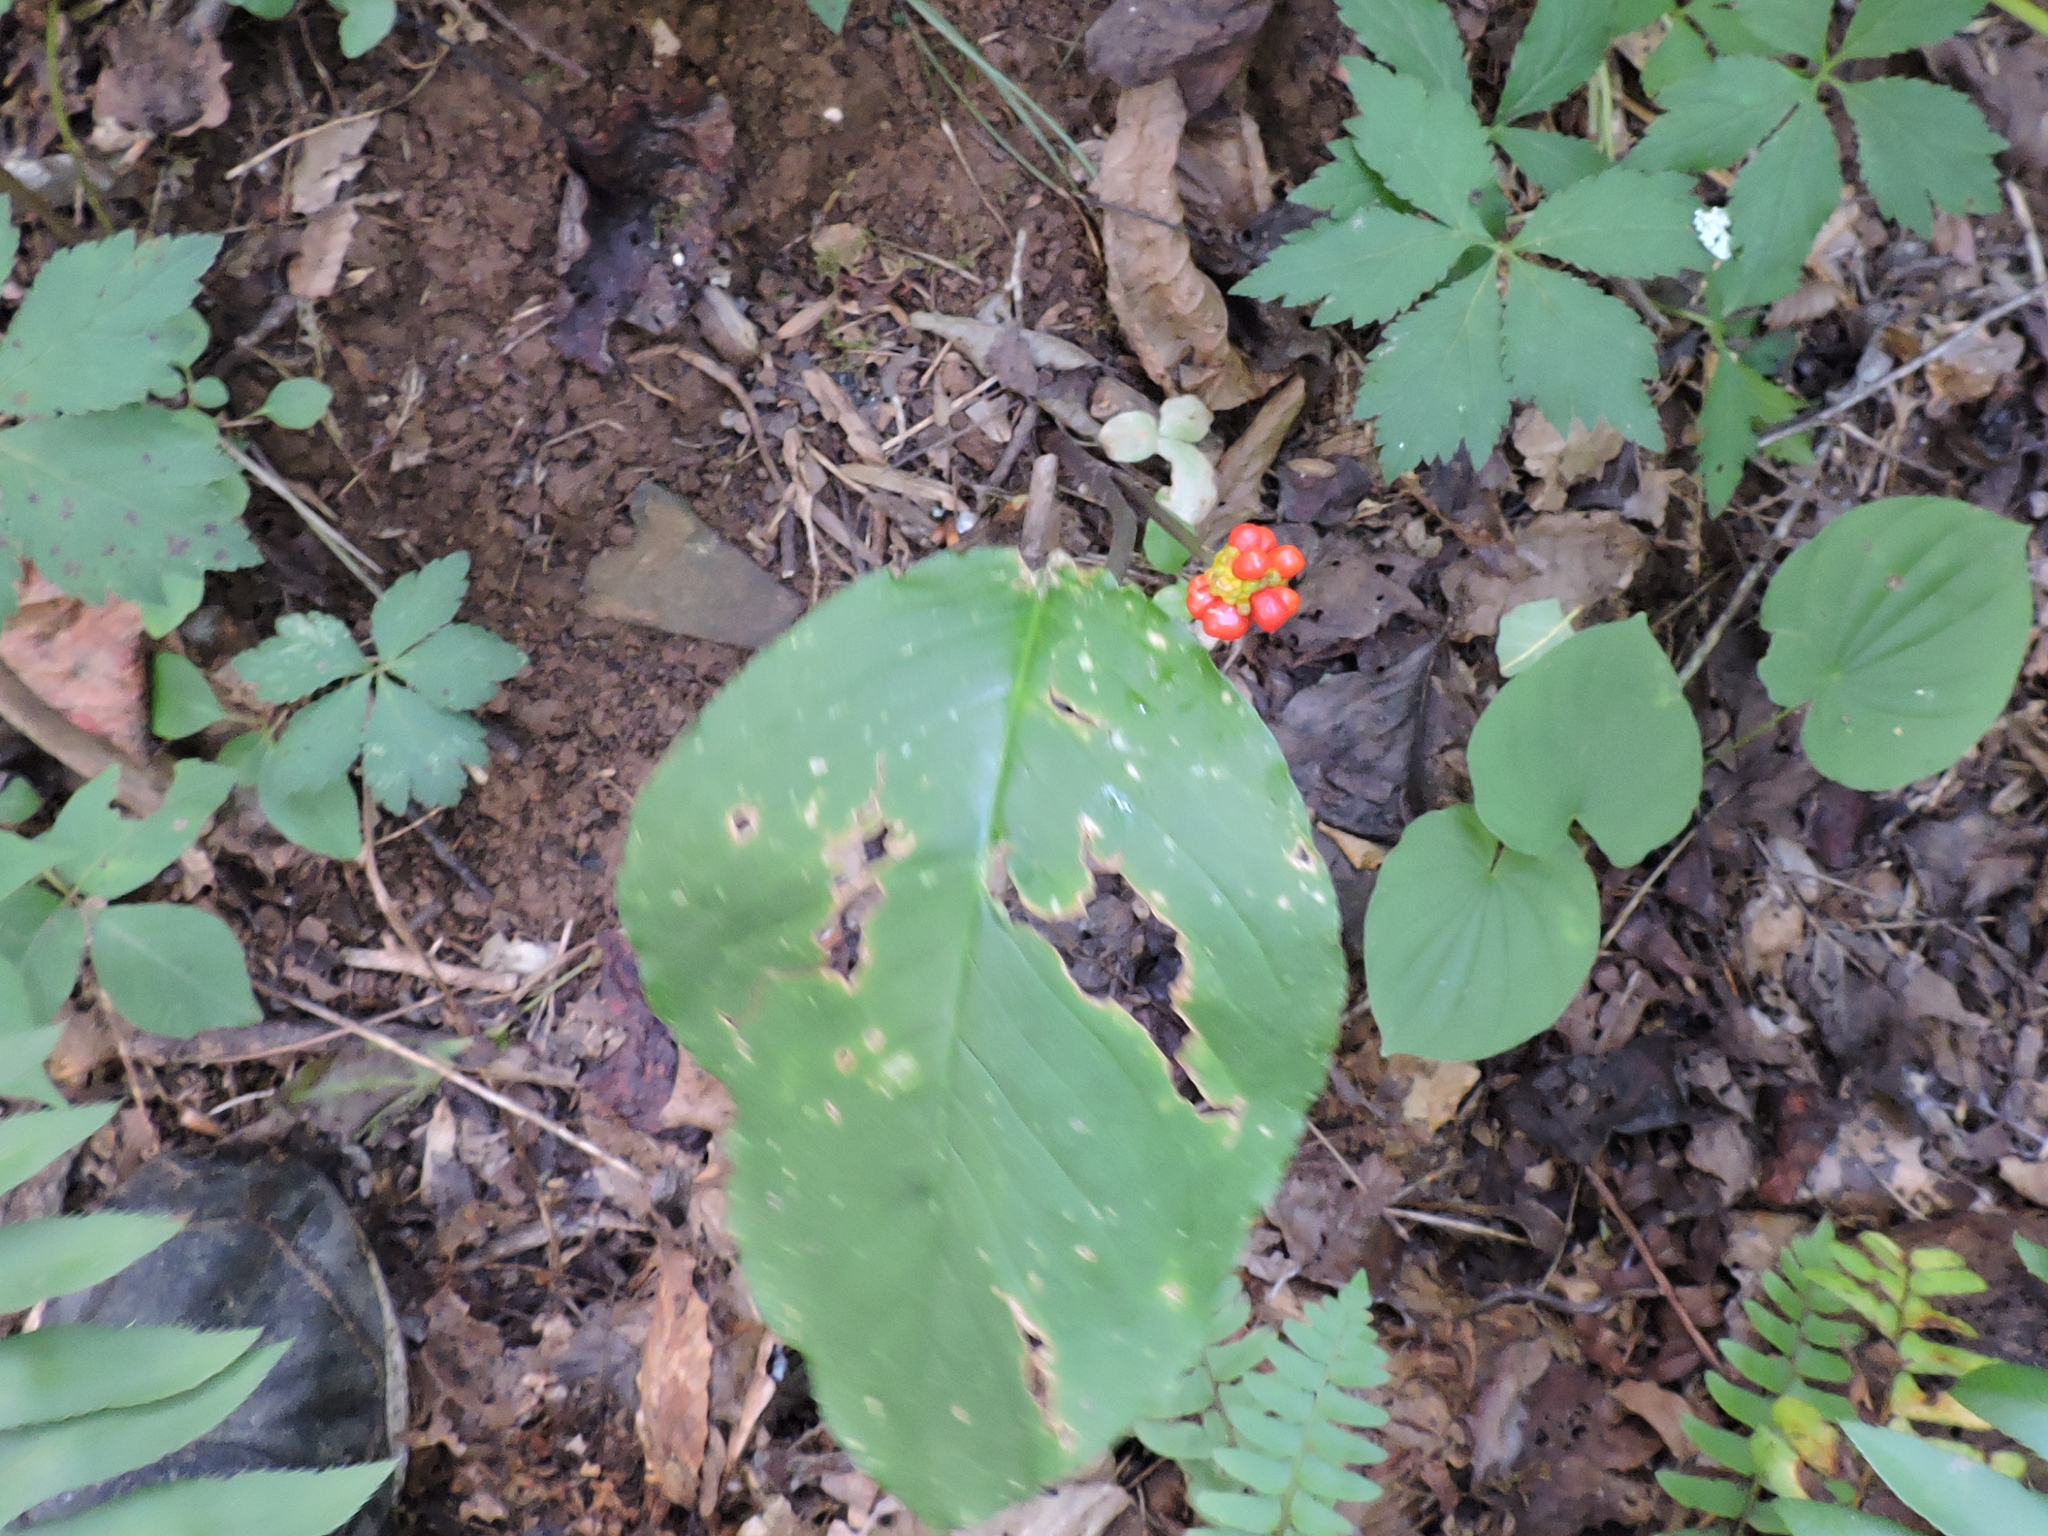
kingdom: Plantae
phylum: Tracheophyta
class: Liliopsida
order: Alismatales
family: Araceae
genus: Arisaema
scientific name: Arisaema triphyllum
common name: Jack-in-the-pulpit
